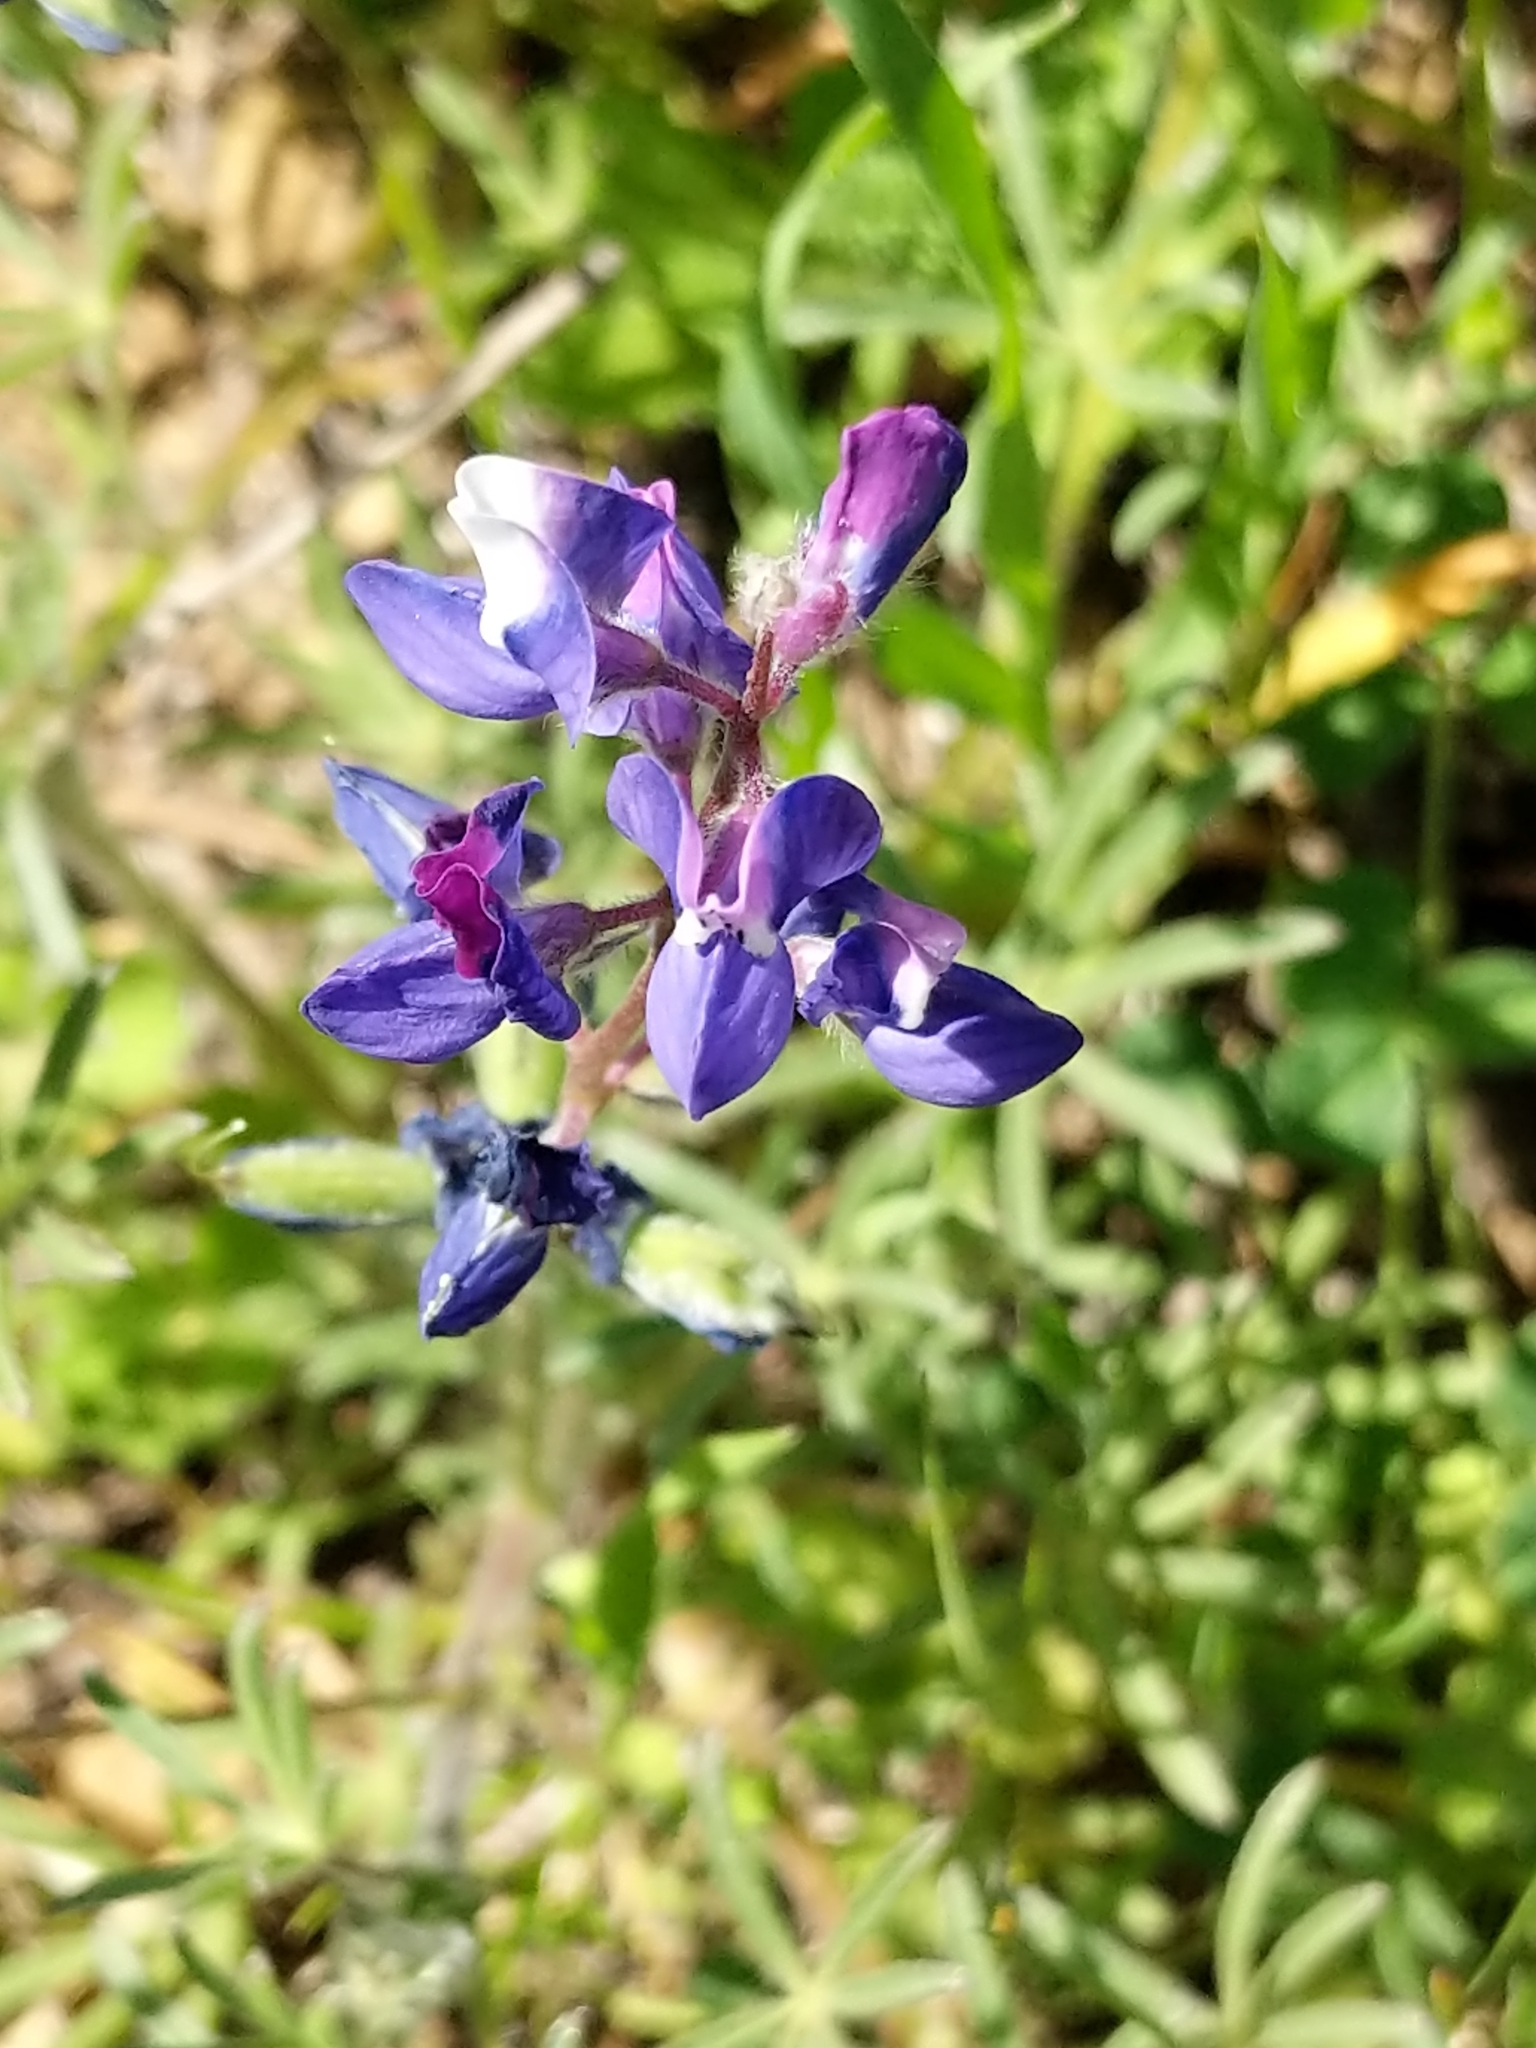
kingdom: Plantae
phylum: Tracheophyta
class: Magnoliopsida
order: Fabales
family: Fabaceae
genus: Lupinus
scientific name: Lupinus bicolor
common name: Miniature lupine
